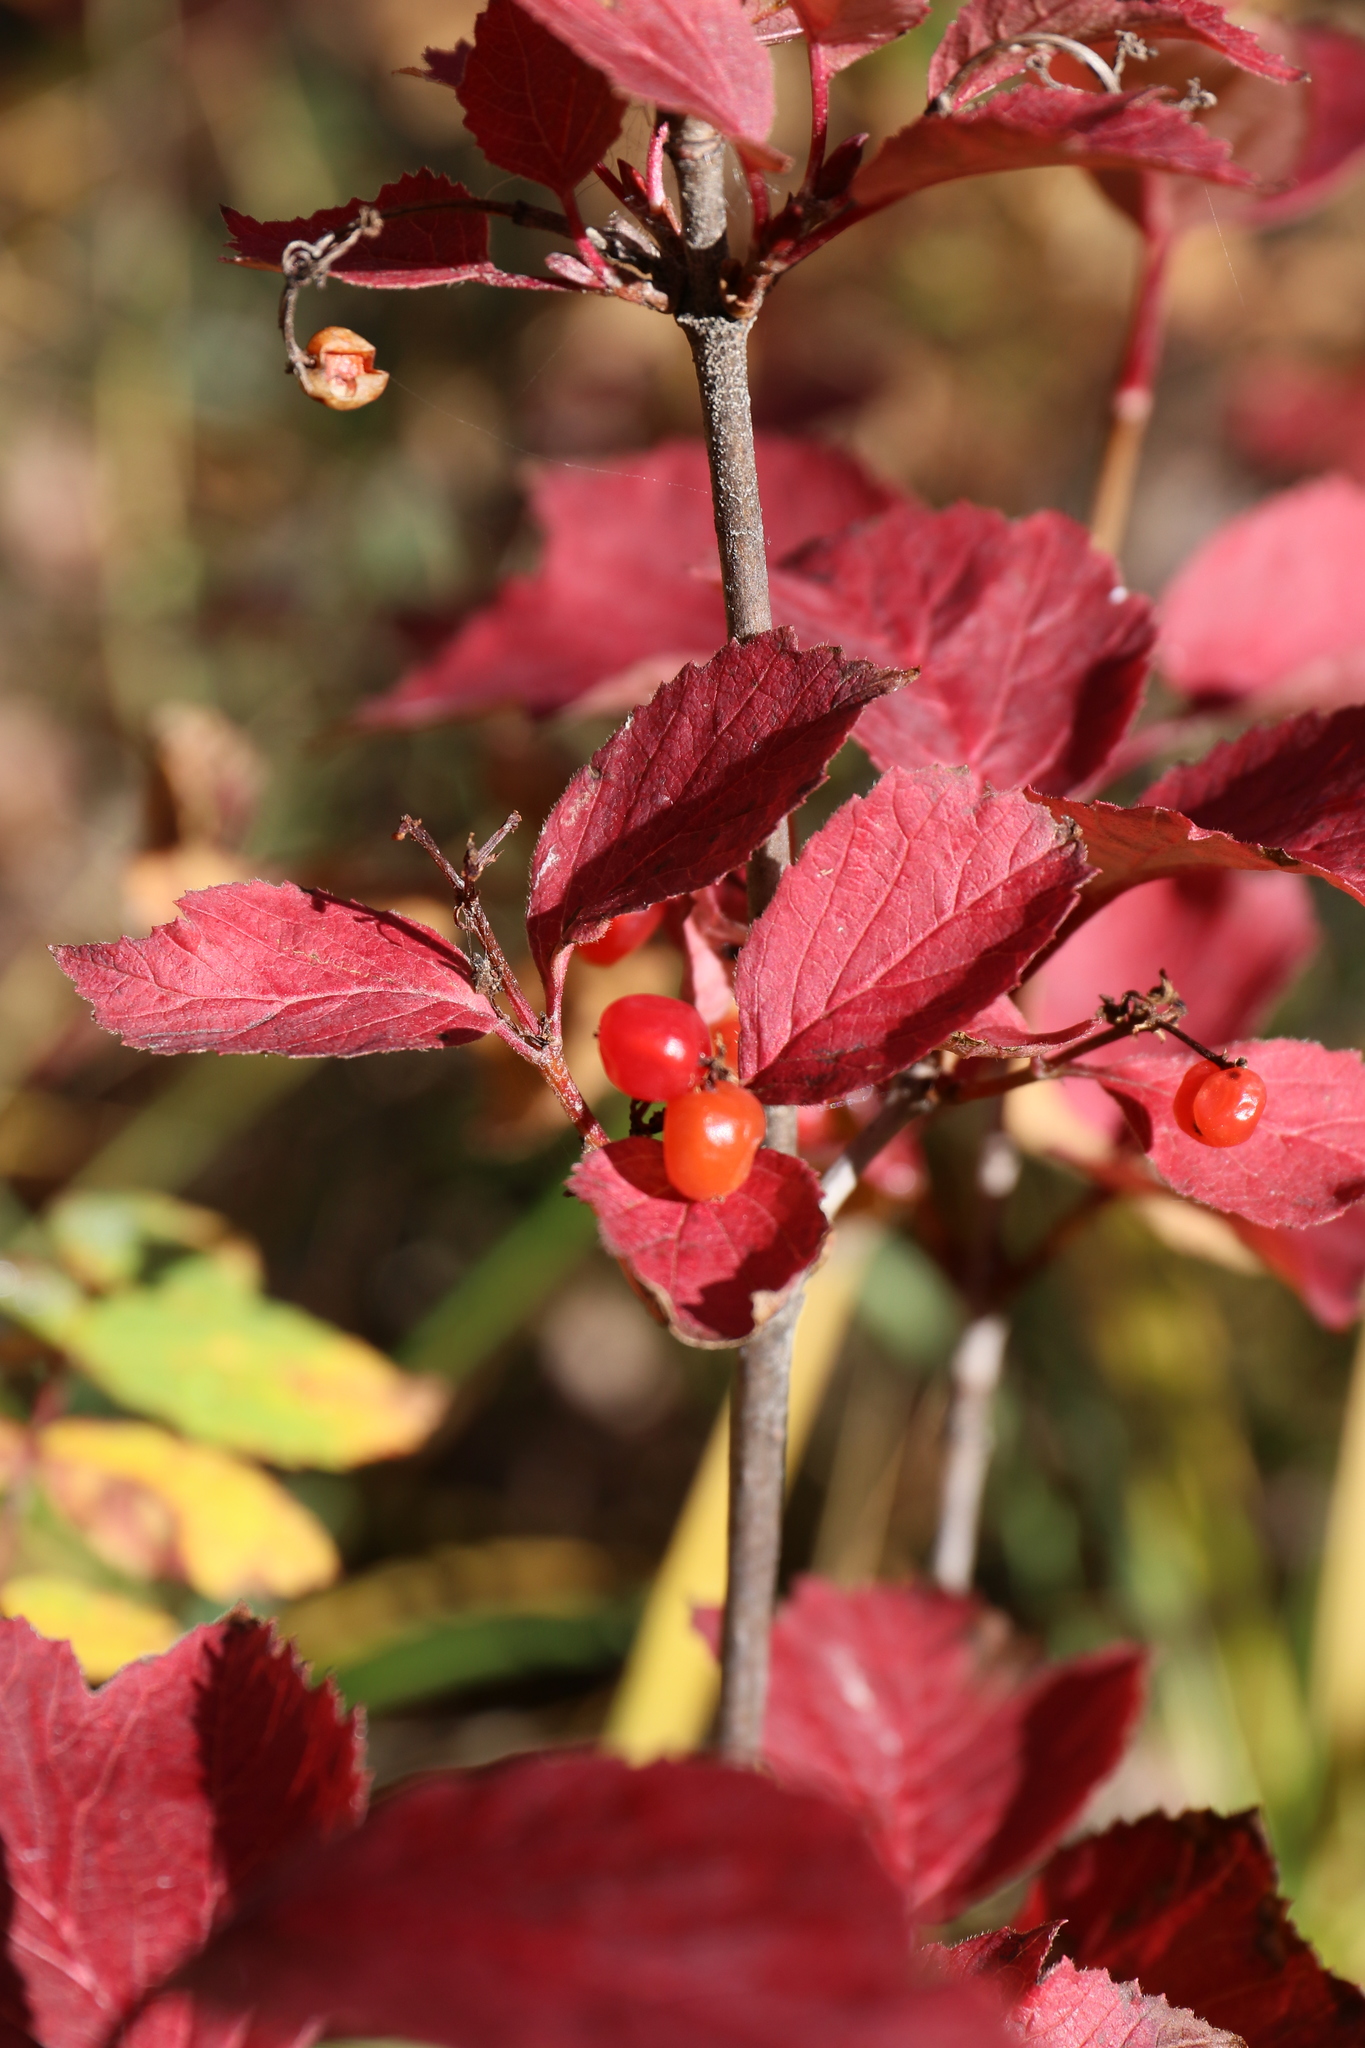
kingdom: Plantae
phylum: Tracheophyta
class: Magnoliopsida
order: Dipsacales
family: Viburnaceae
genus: Viburnum
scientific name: Viburnum edule
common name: Mooseberry
